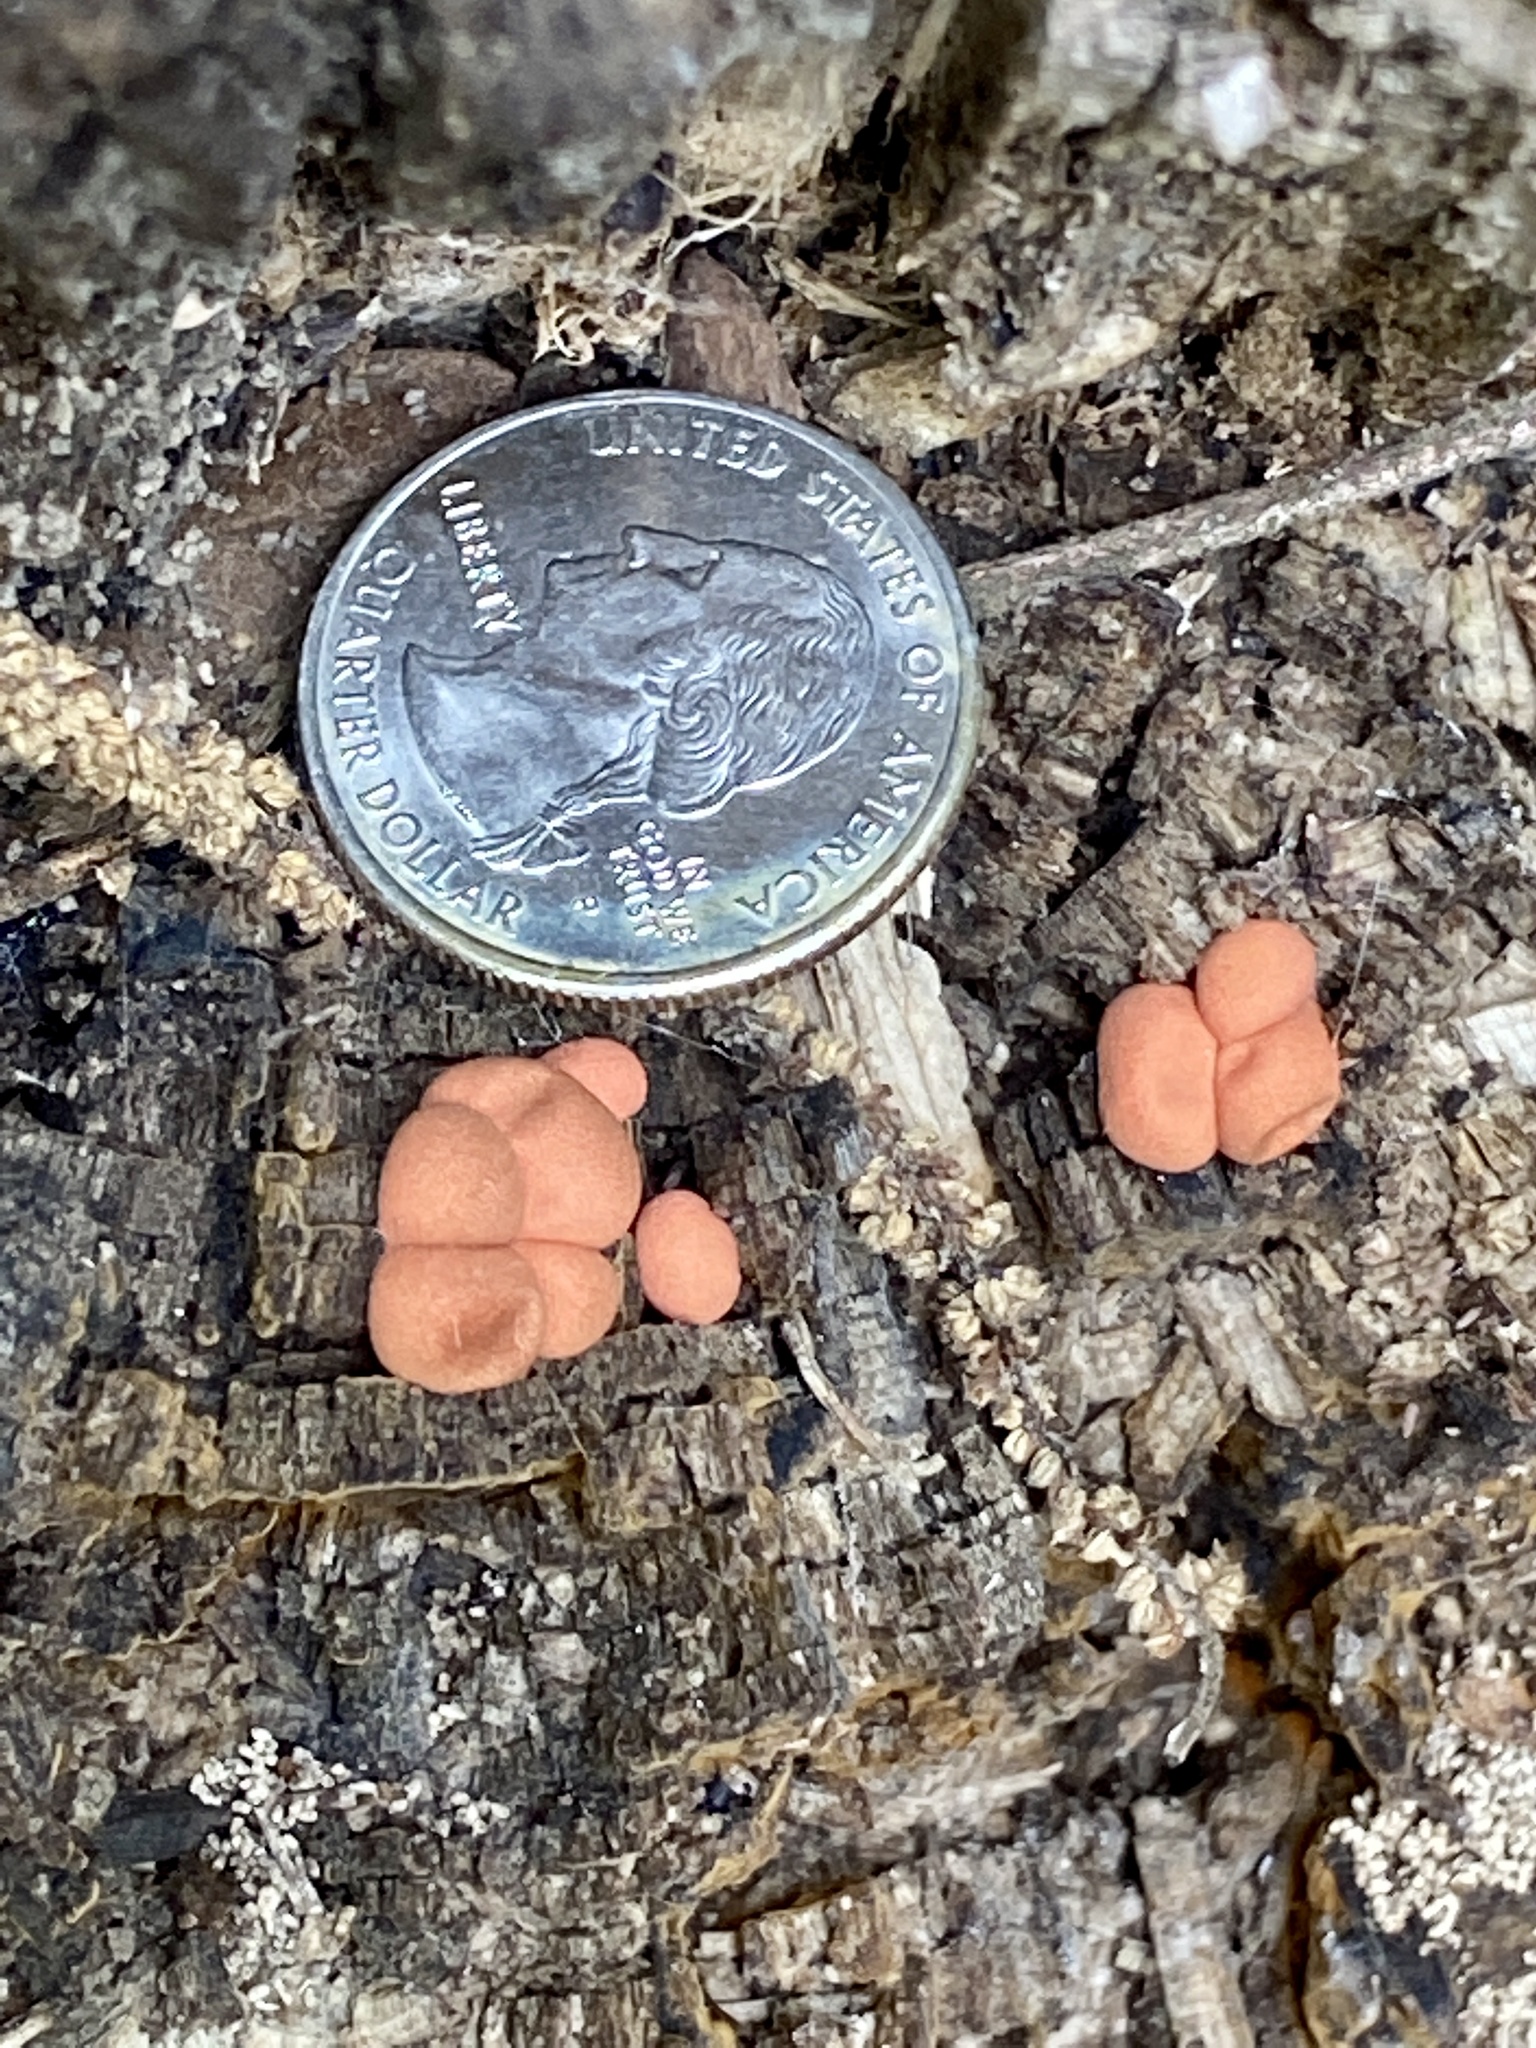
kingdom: Protozoa
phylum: Mycetozoa
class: Myxomycetes
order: Cribrariales
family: Tubiferaceae
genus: Lycogala
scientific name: Lycogala epidendrum
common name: Wolf's milk
